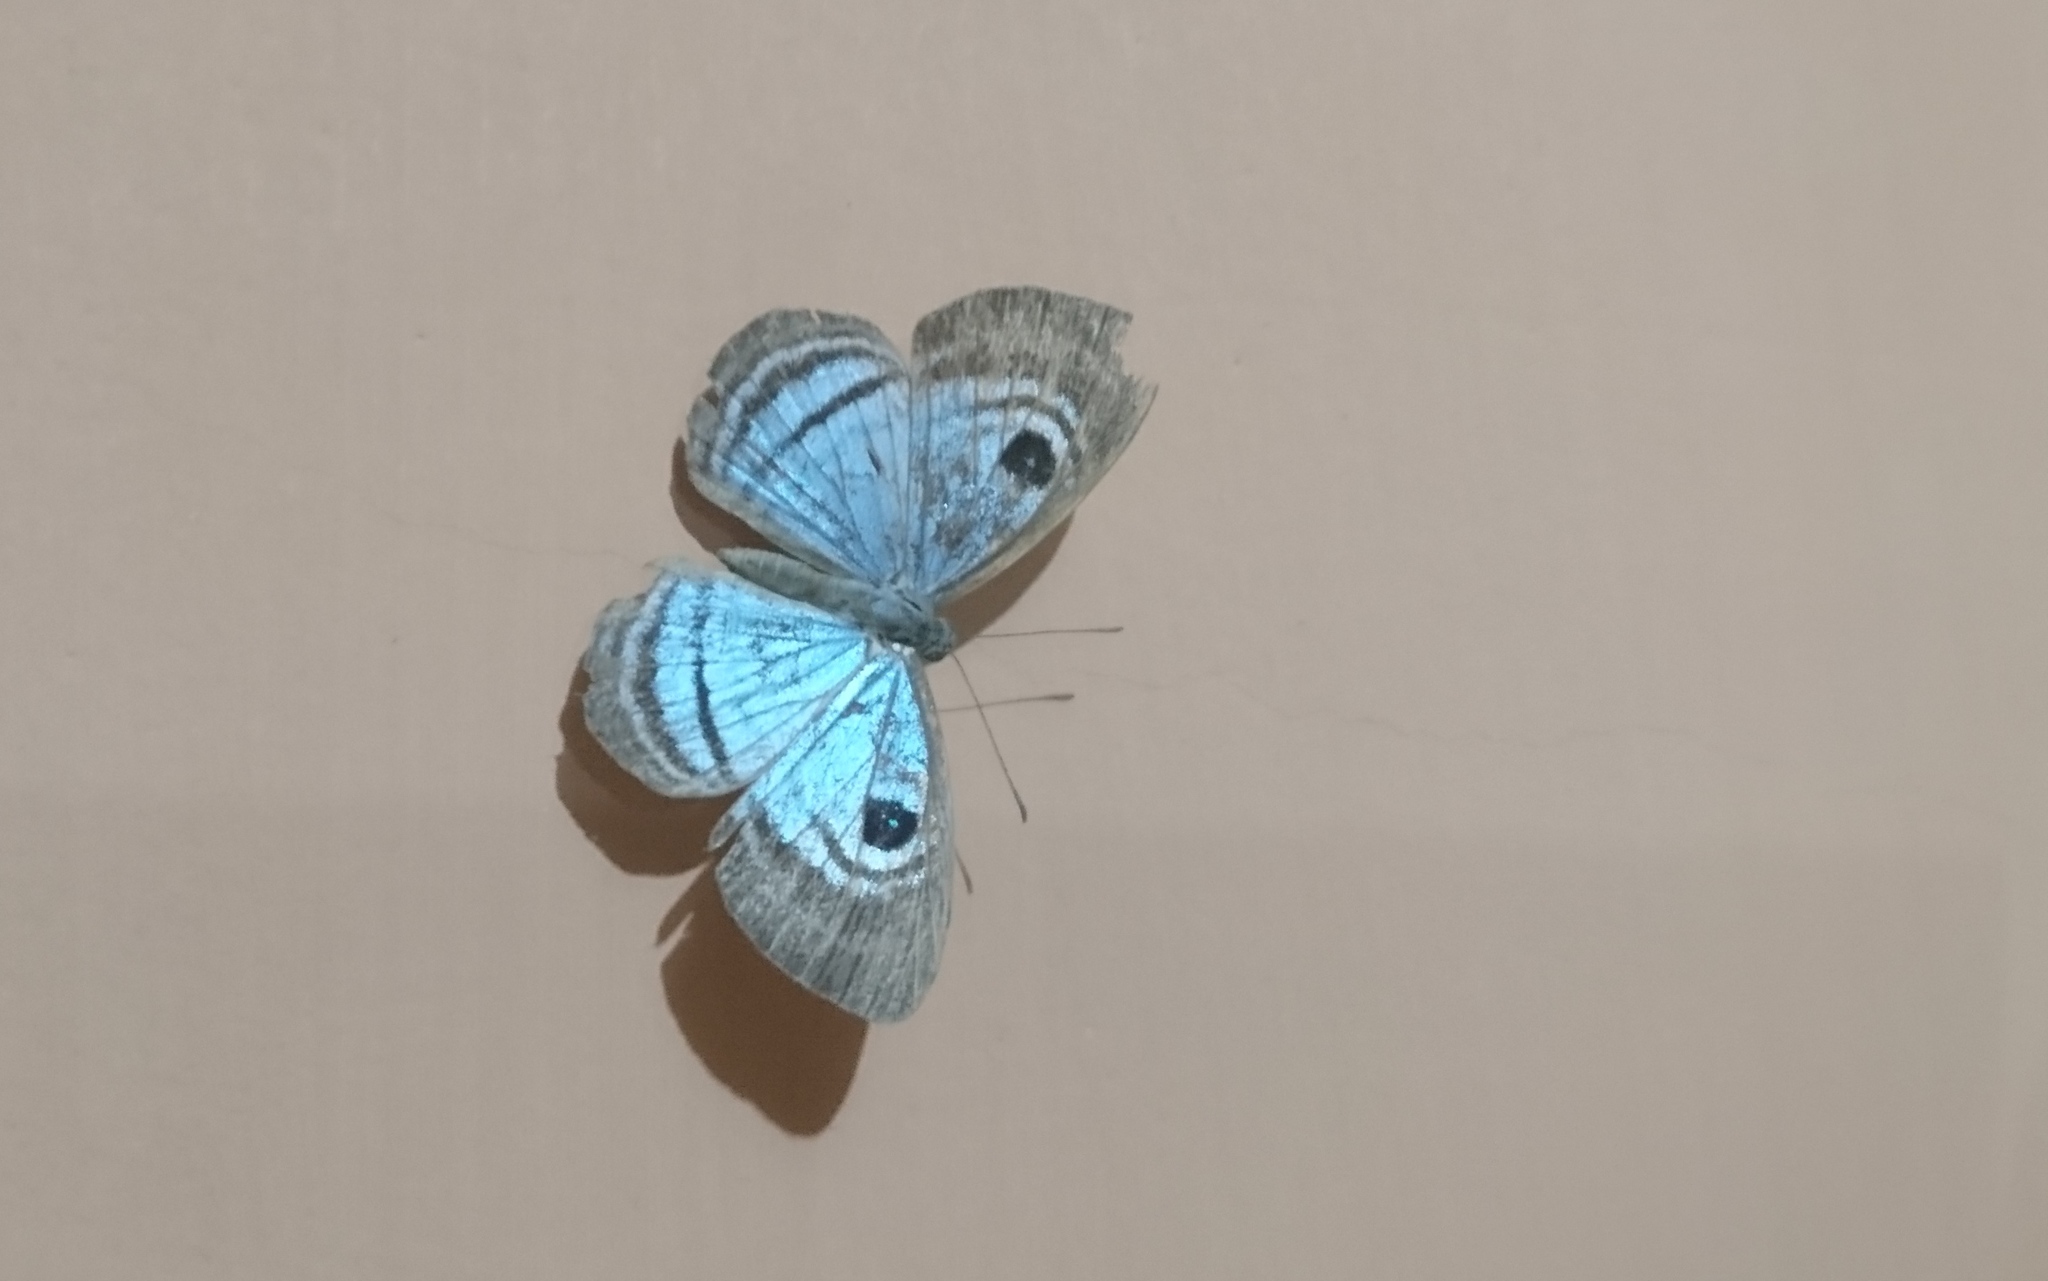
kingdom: Animalia
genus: Mesosemia
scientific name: Mesosemia coelestis
